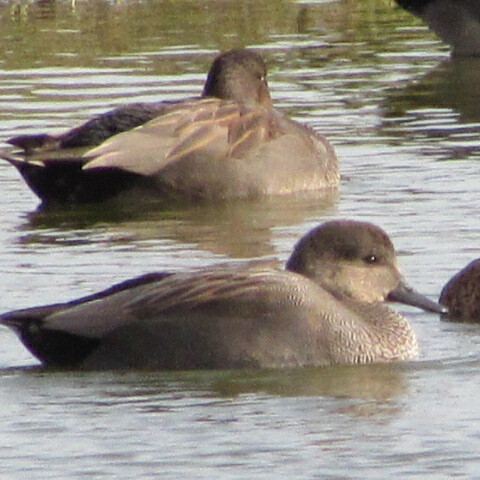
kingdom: Animalia
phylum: Chordata
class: Aves
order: Anseriformes
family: Anatidae
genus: Mareca
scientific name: Mareca strepera
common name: Gadwall
